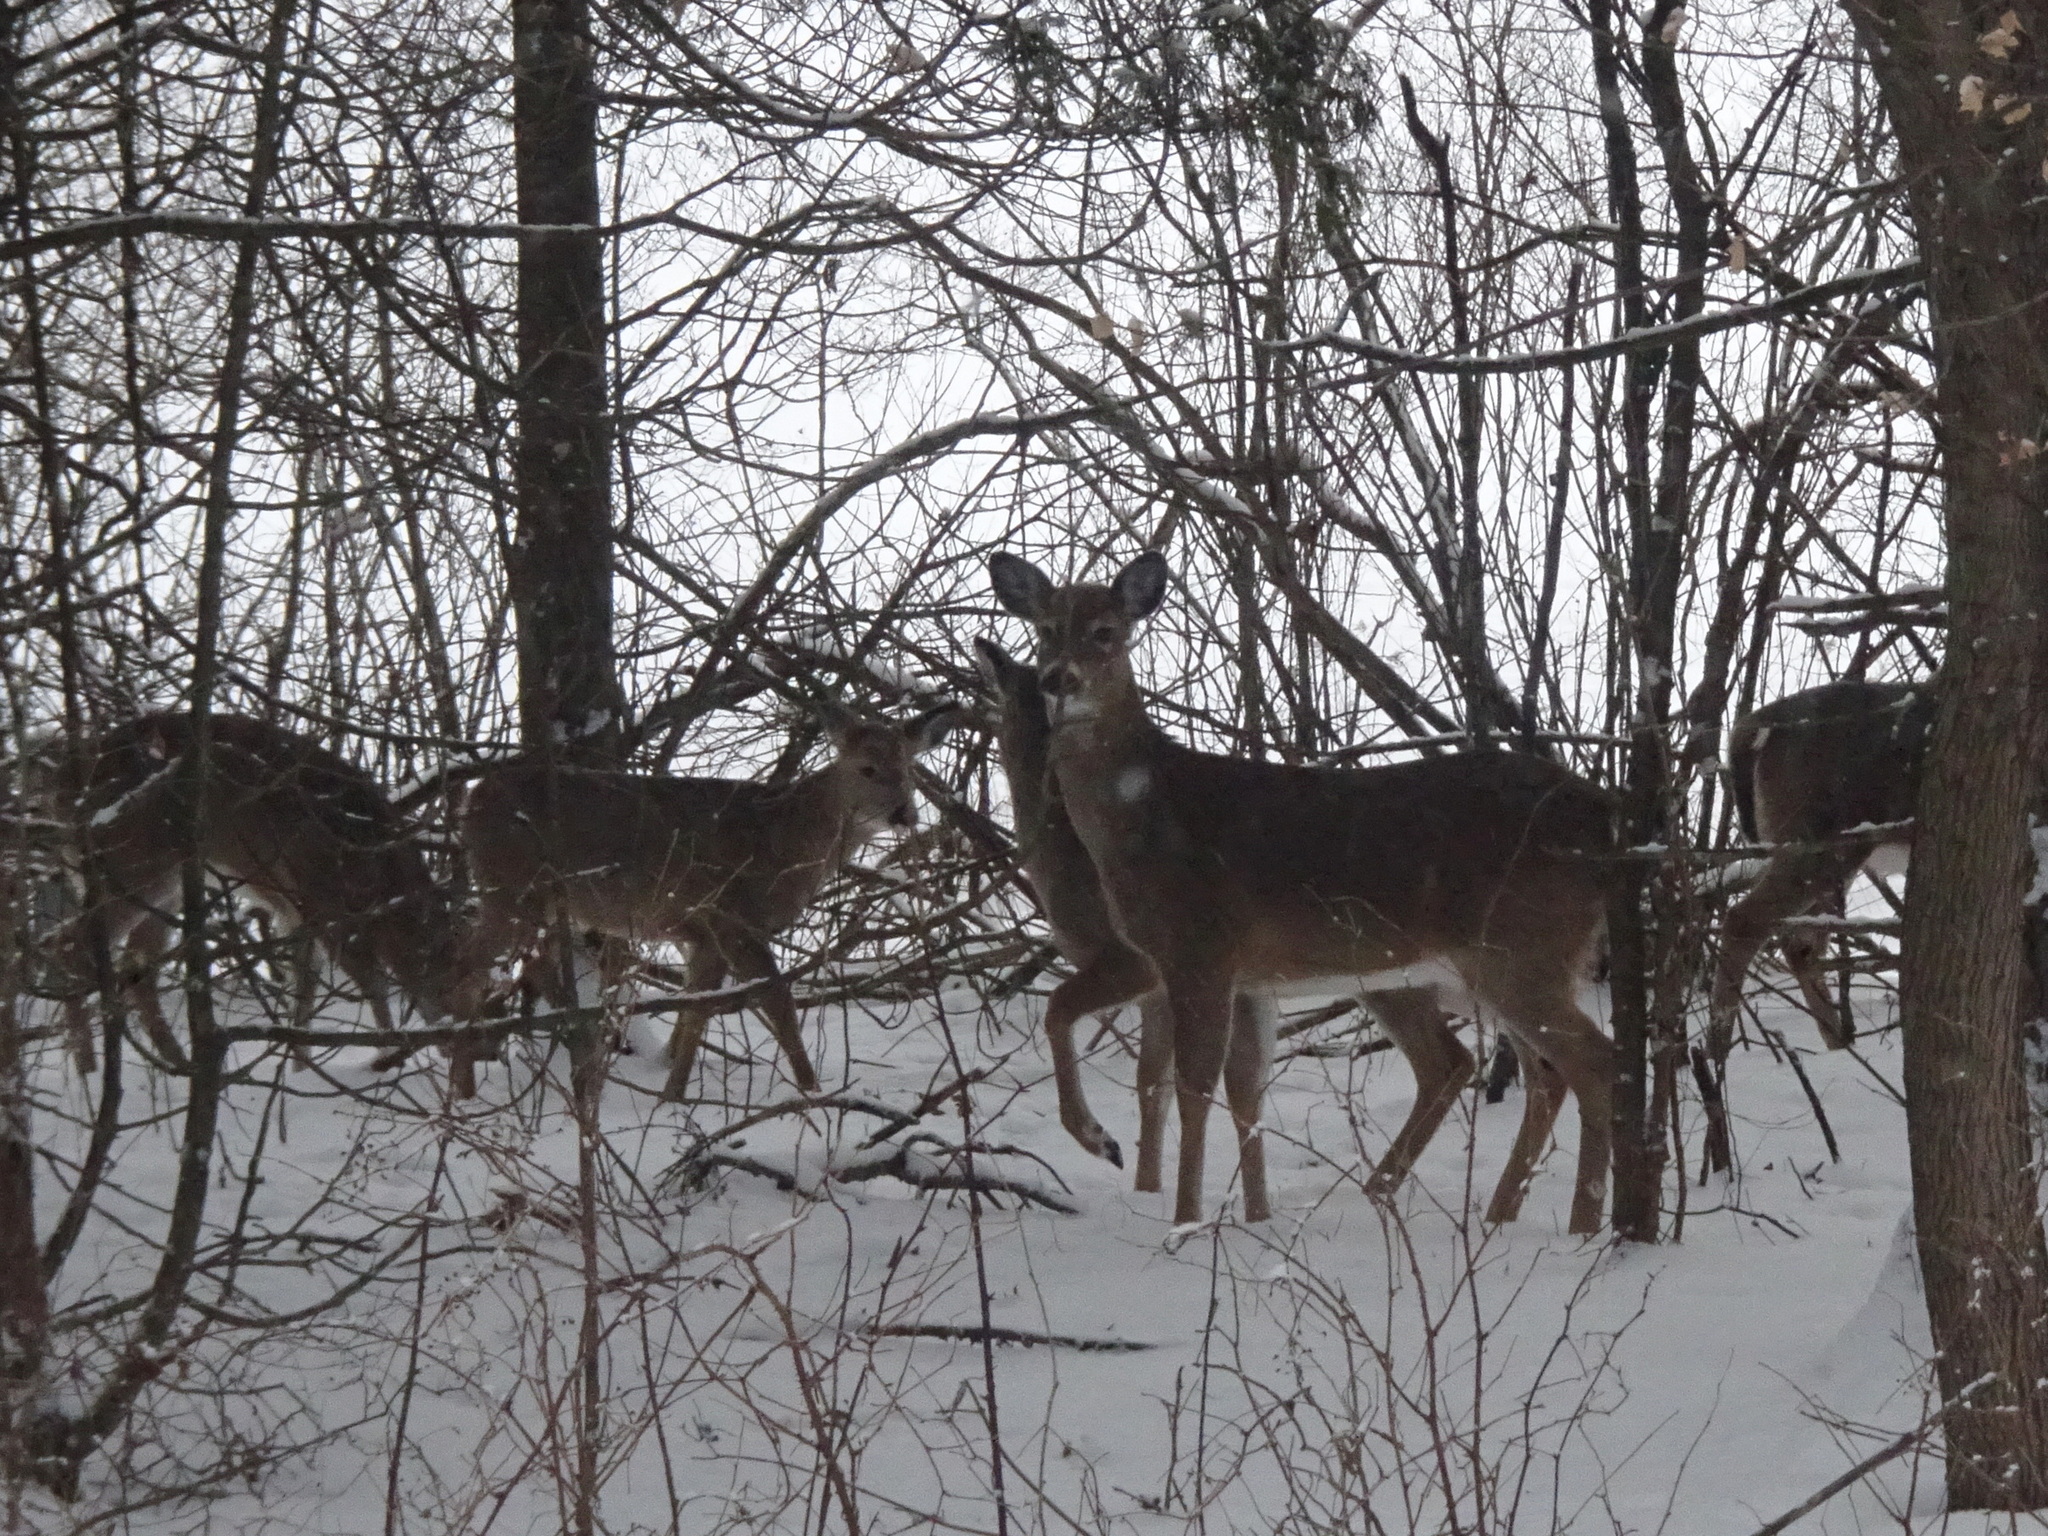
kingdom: Animalia
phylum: Chordata
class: Mammalia
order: Artiodactyla
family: Cervidae
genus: Odocoileus
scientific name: Odocoileus virginianus
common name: White-tailed deer
